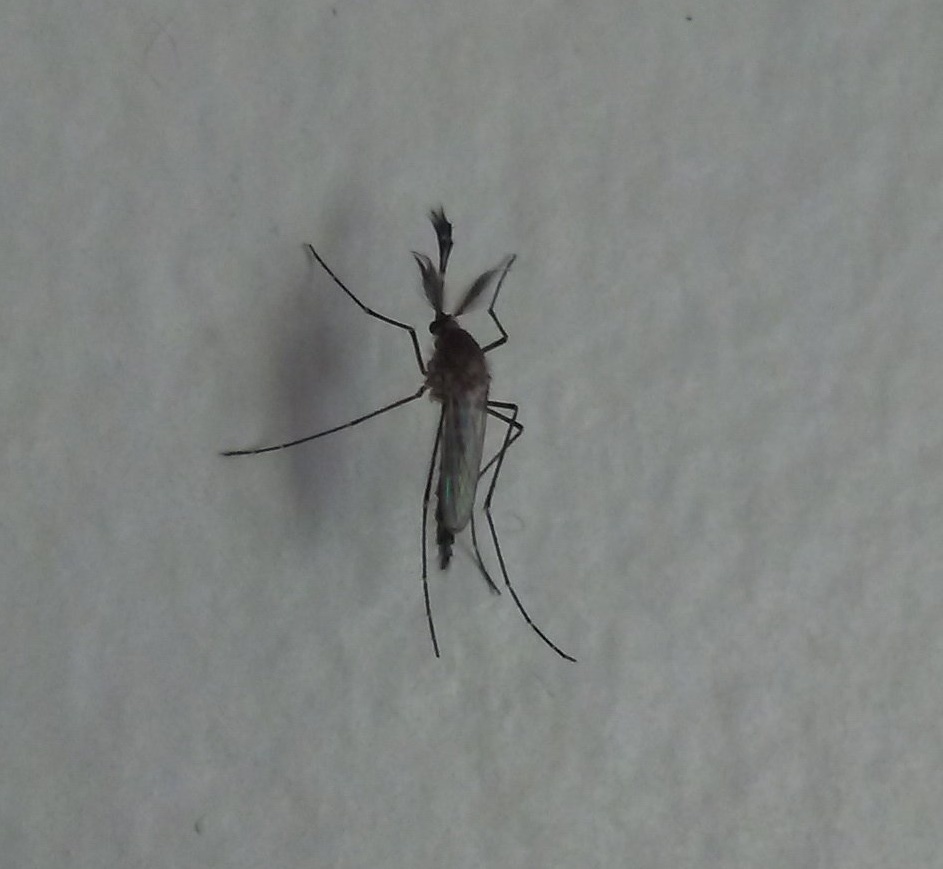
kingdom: Animalia
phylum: Arthropoda
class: Insecta
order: Diptera
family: Culicidae
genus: Aedes
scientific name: Aedes vexans
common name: Inland floodwater mosquito
